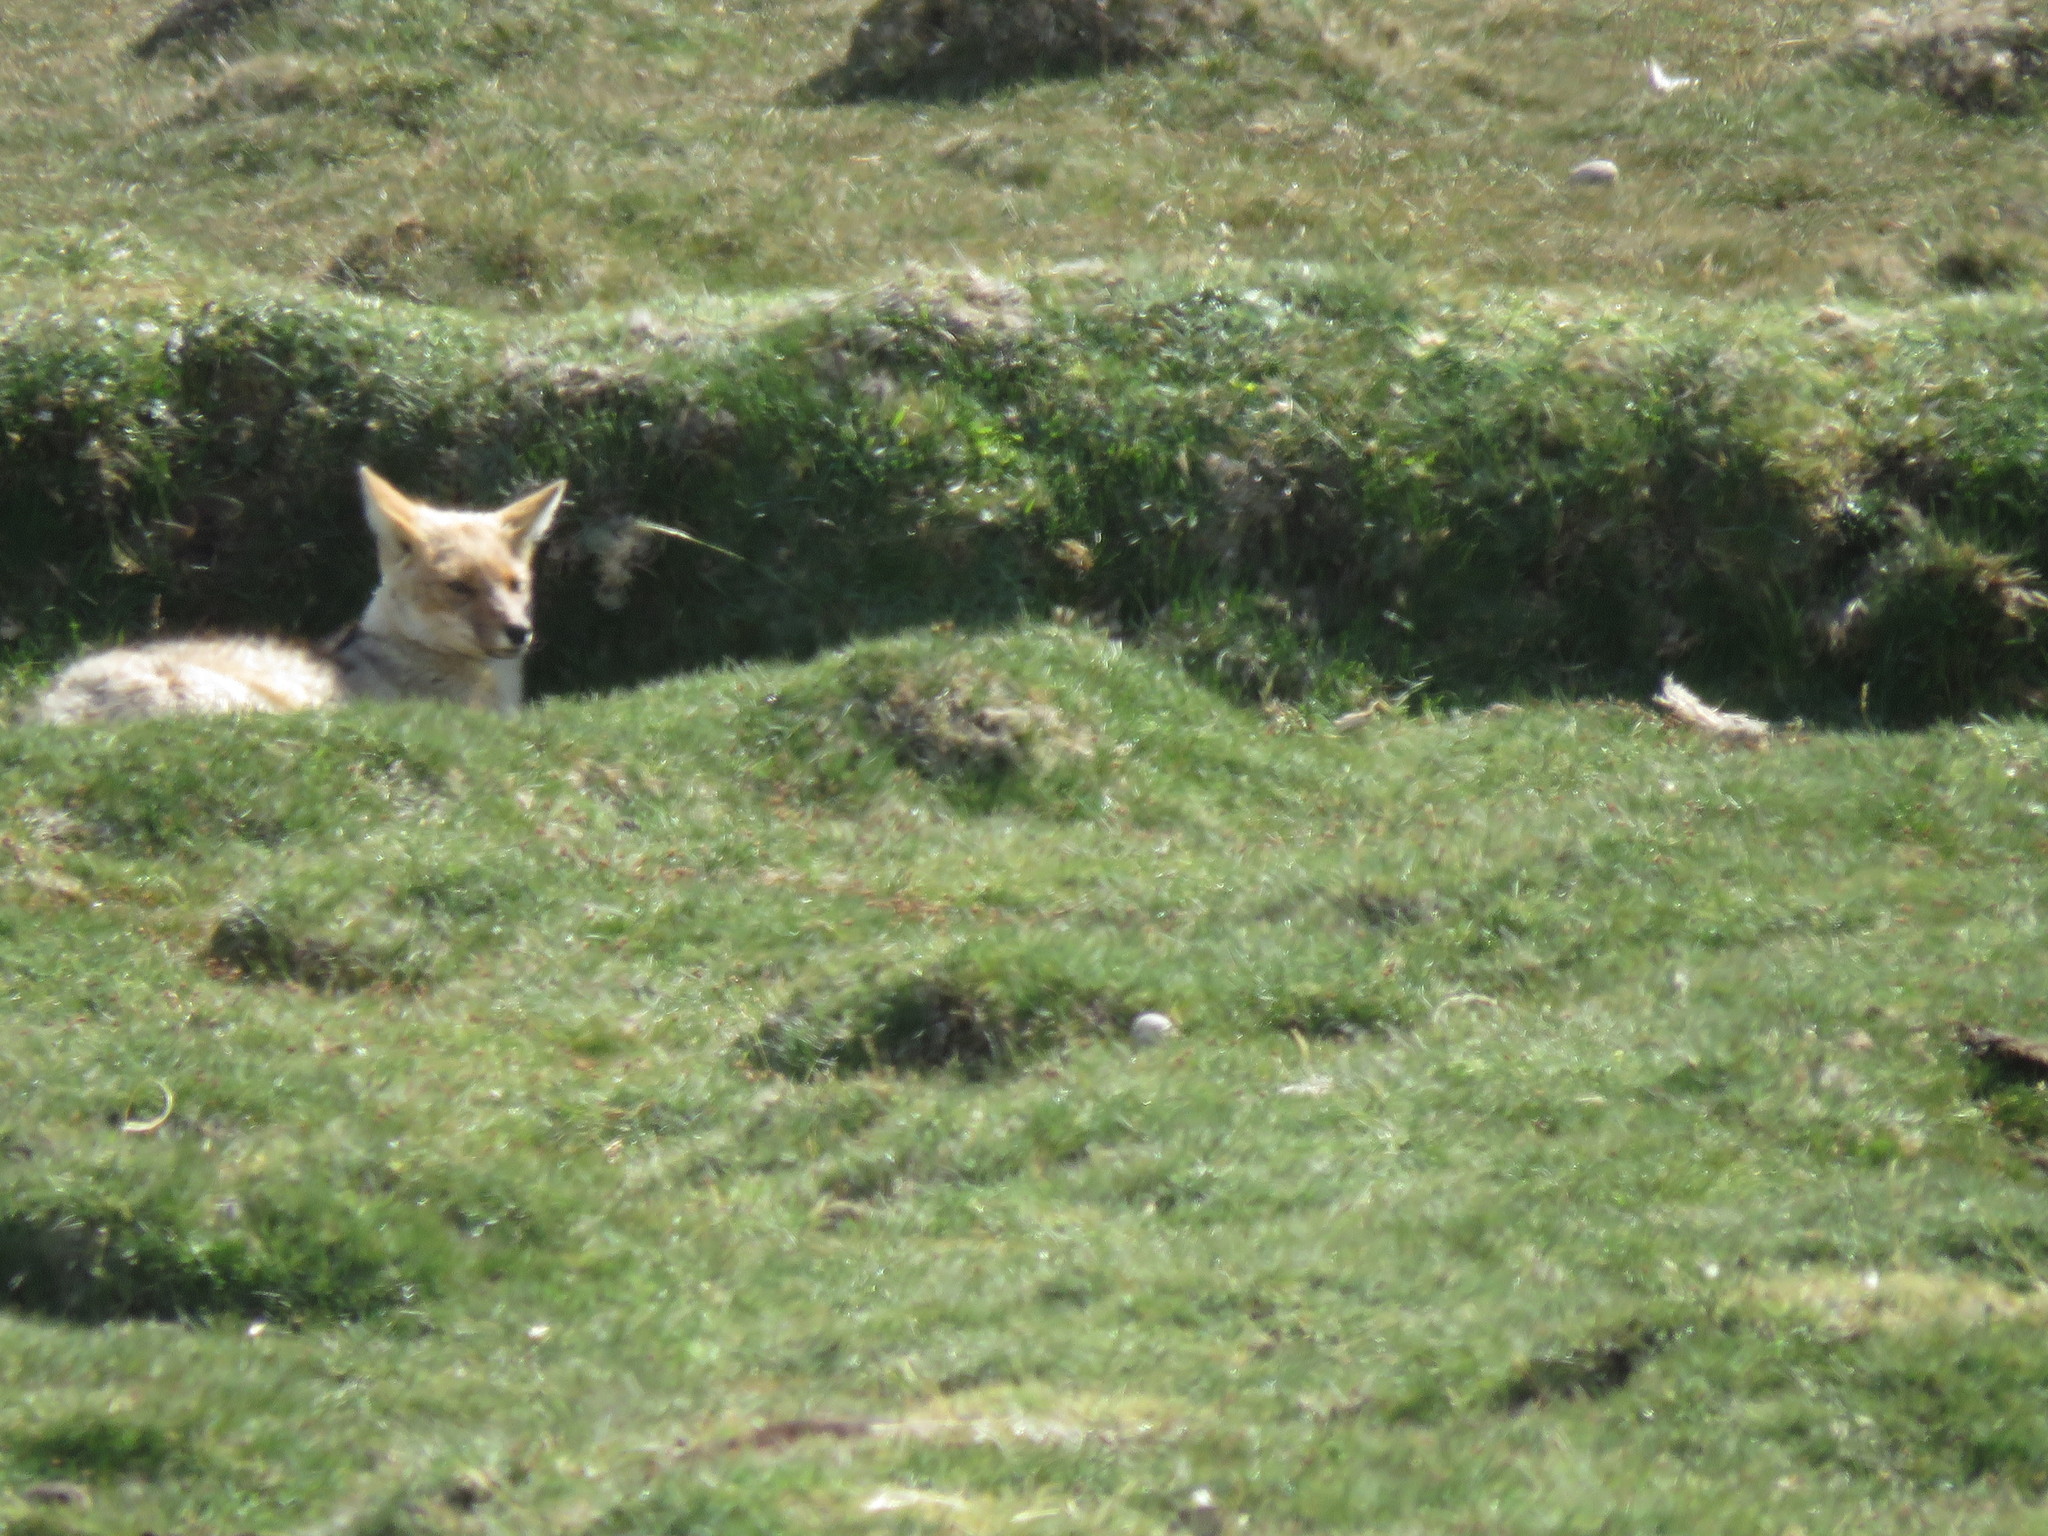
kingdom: Animalia
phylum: Chordata
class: Mammalia
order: Carnivora
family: Canidae
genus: Lycalopex
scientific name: Lycalopex culpaeus
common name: Culpeo
